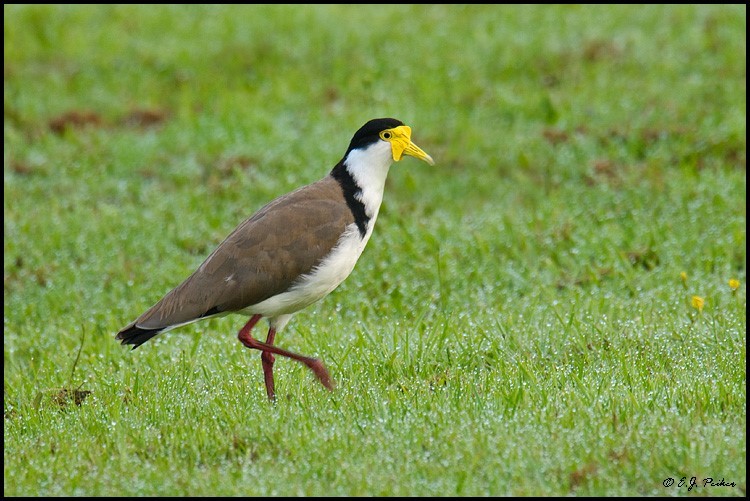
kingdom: Animalia
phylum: Chordata
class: Aves
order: Charadriiformes
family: Charadriidae
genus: Vanellus
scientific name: Vanellus miles
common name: Masked lapwing
